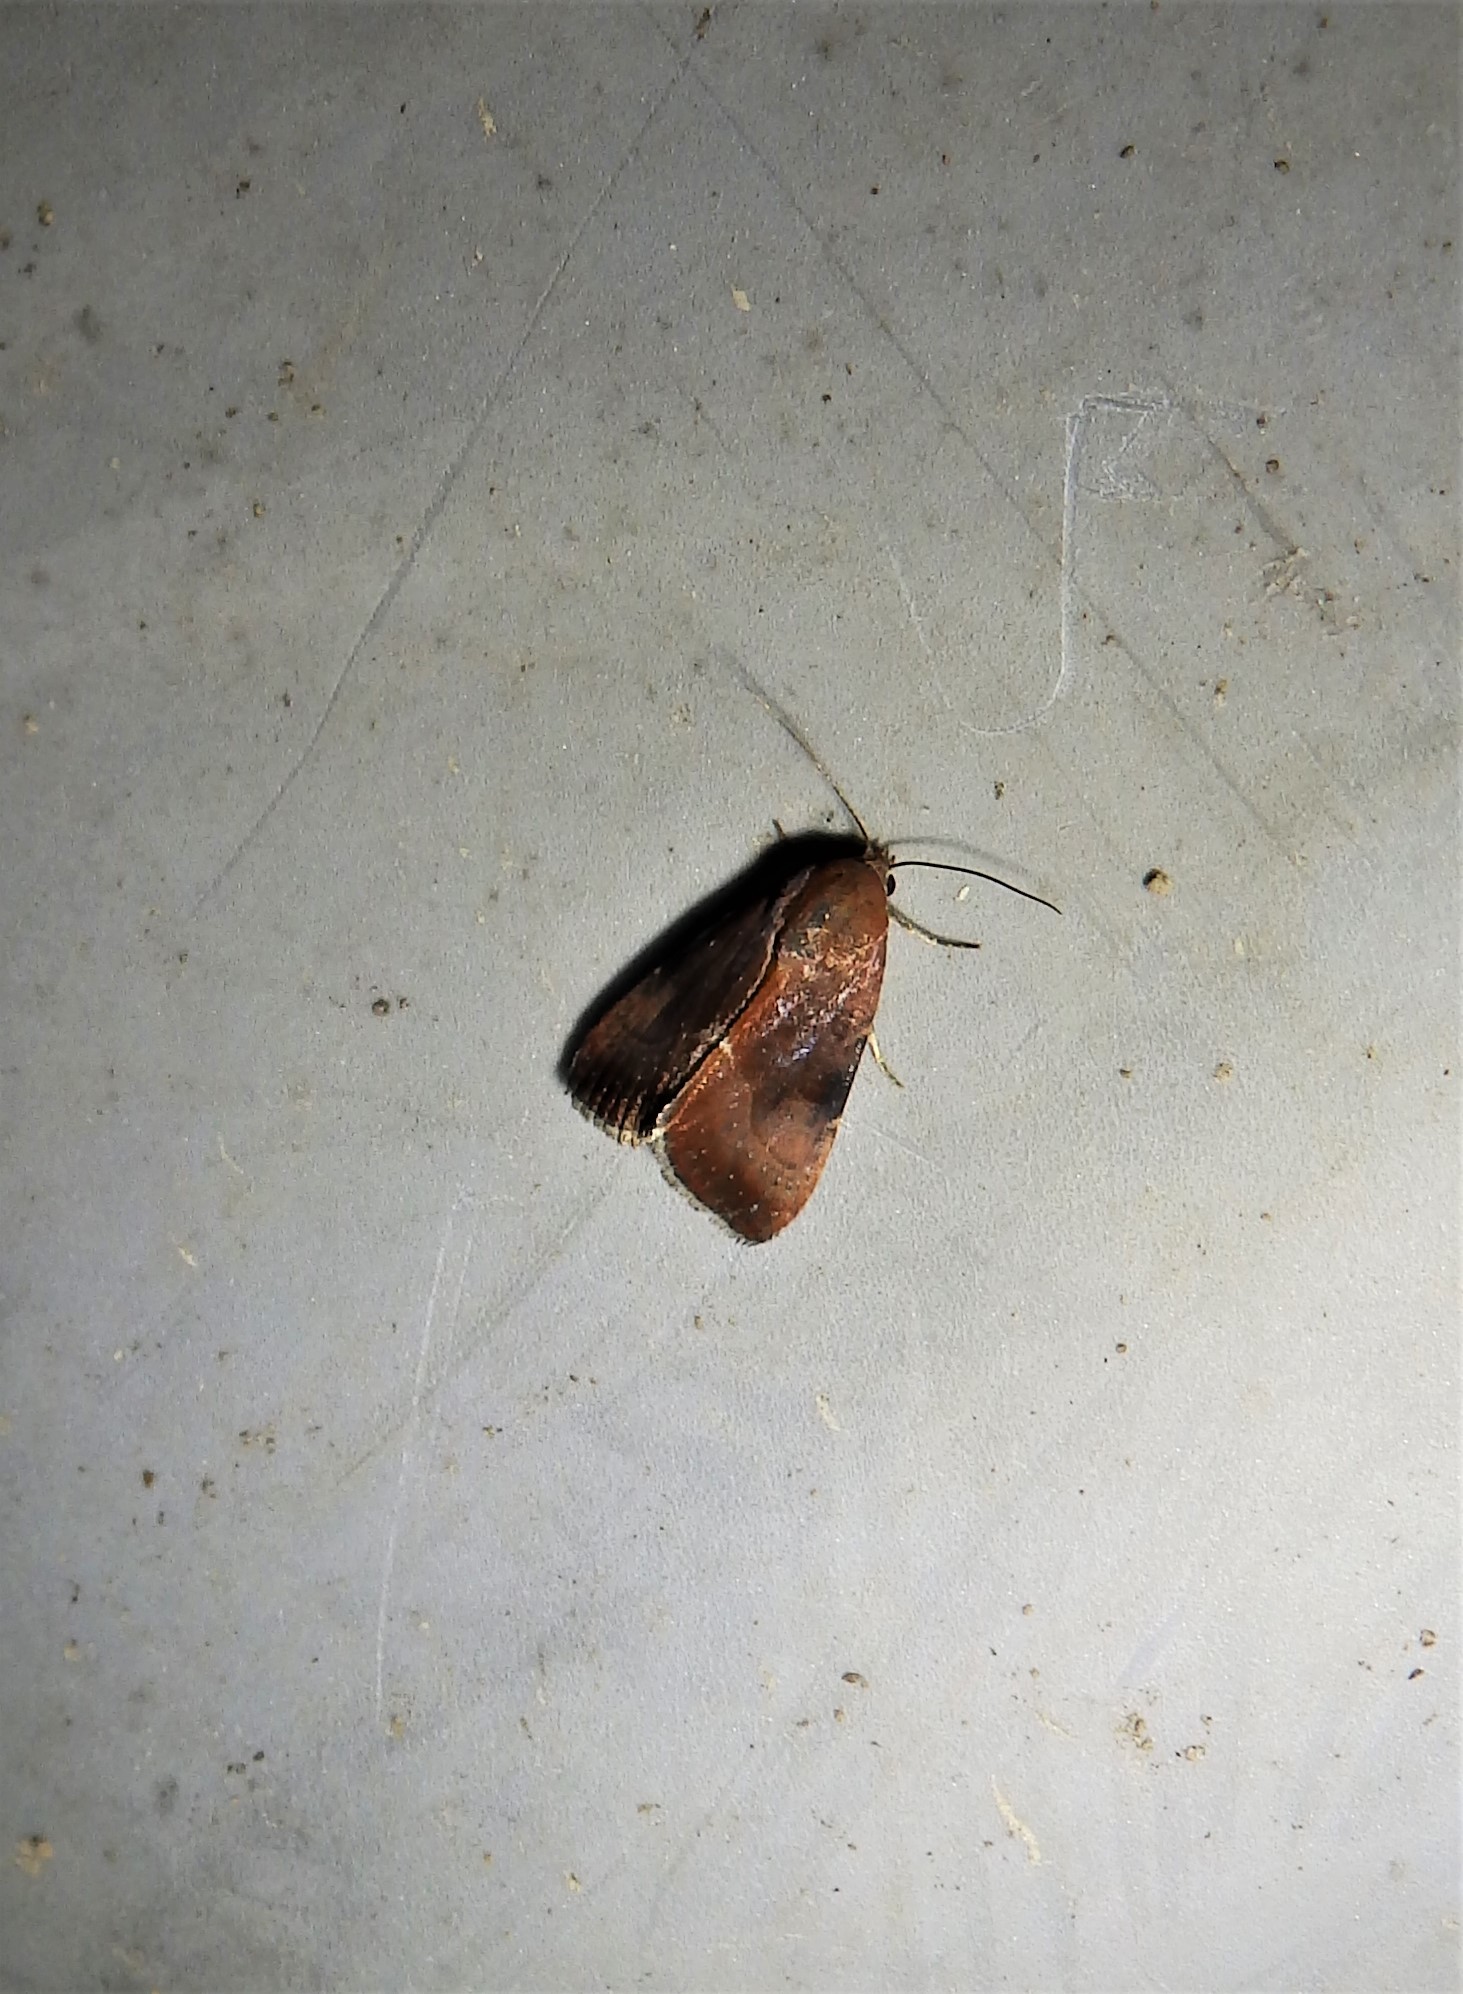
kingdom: Animalia
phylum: Arthropoda
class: Insecta
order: Lepidoptera
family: Noctuidae
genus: Galgula
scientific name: Galgula partita
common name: Wedgeling
